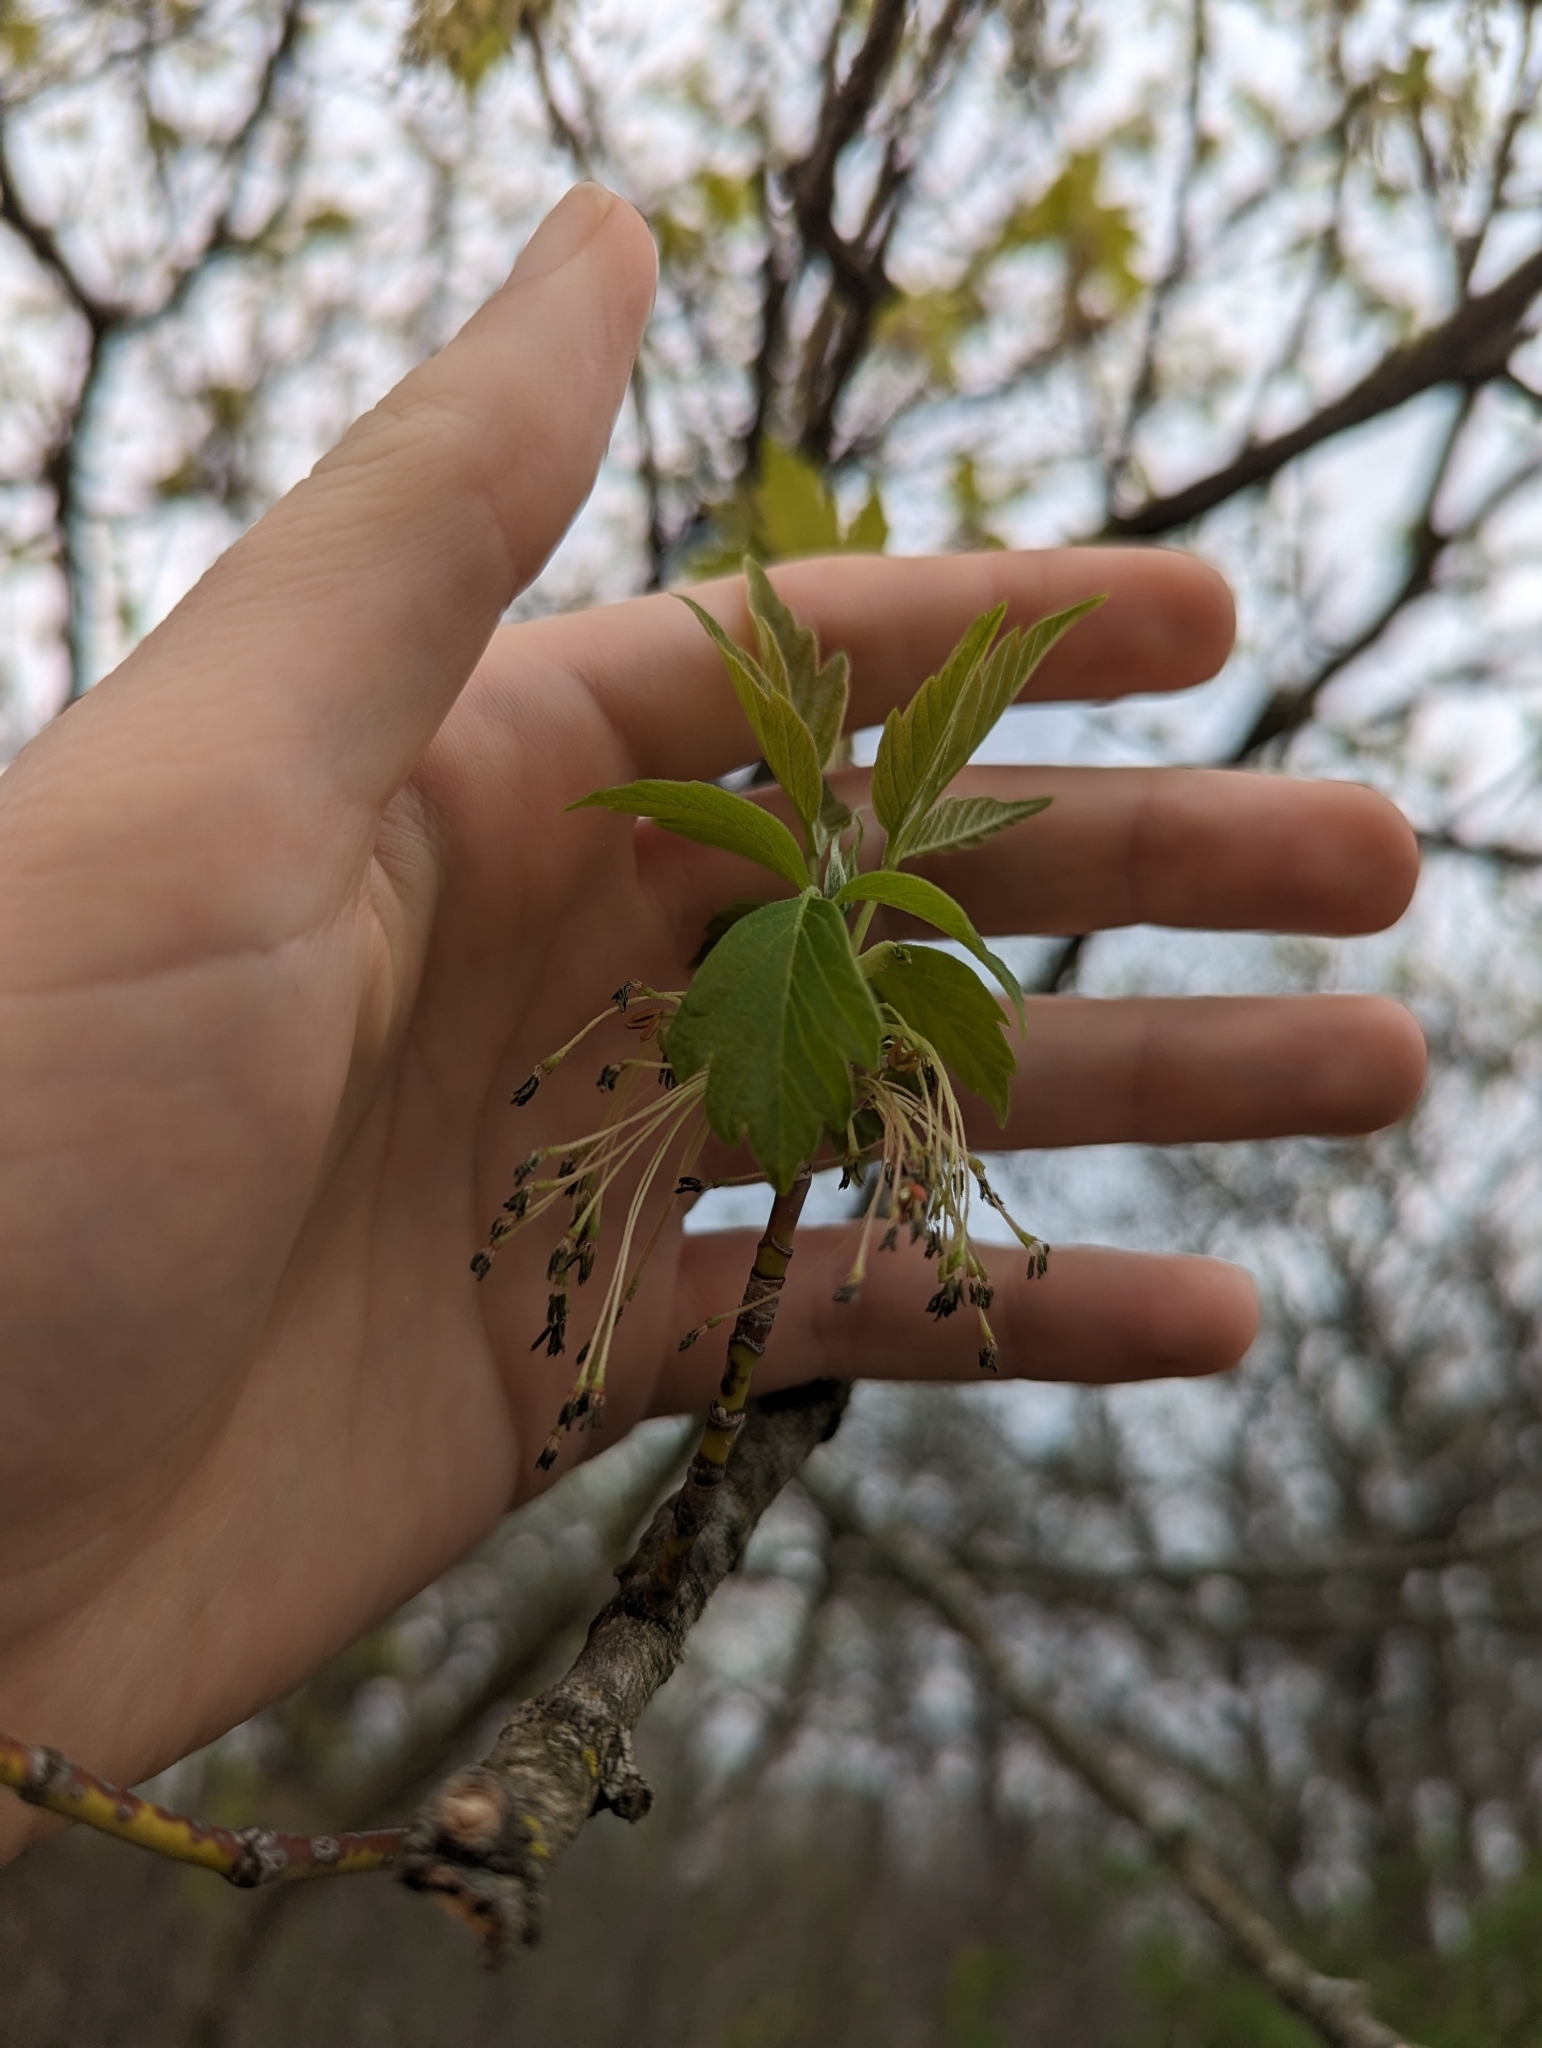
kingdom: Plantae
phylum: Tracheophyta
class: Magnoliopsida
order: Sapindales
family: Sapindaceae
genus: Acer
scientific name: Acer negundo
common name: Ashleaf maple
